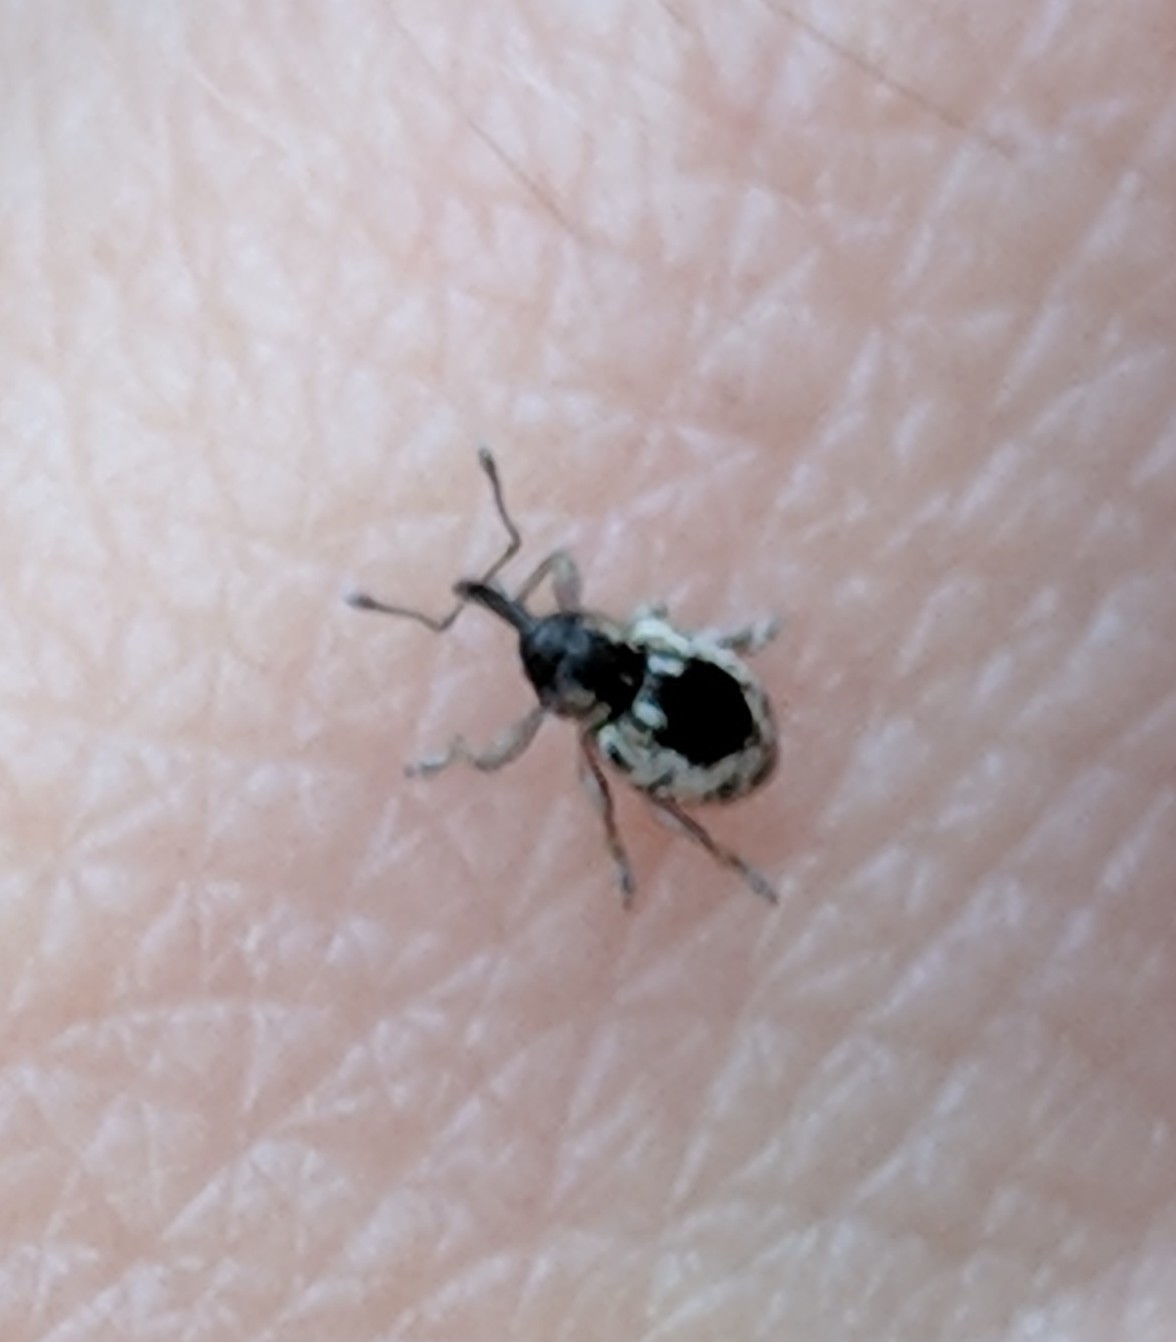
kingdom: Animalia
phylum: Arthropoda
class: Insecta
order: Coleoptera
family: Curculionidae
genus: Smicronyx
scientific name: Smicronyx quadrifer
